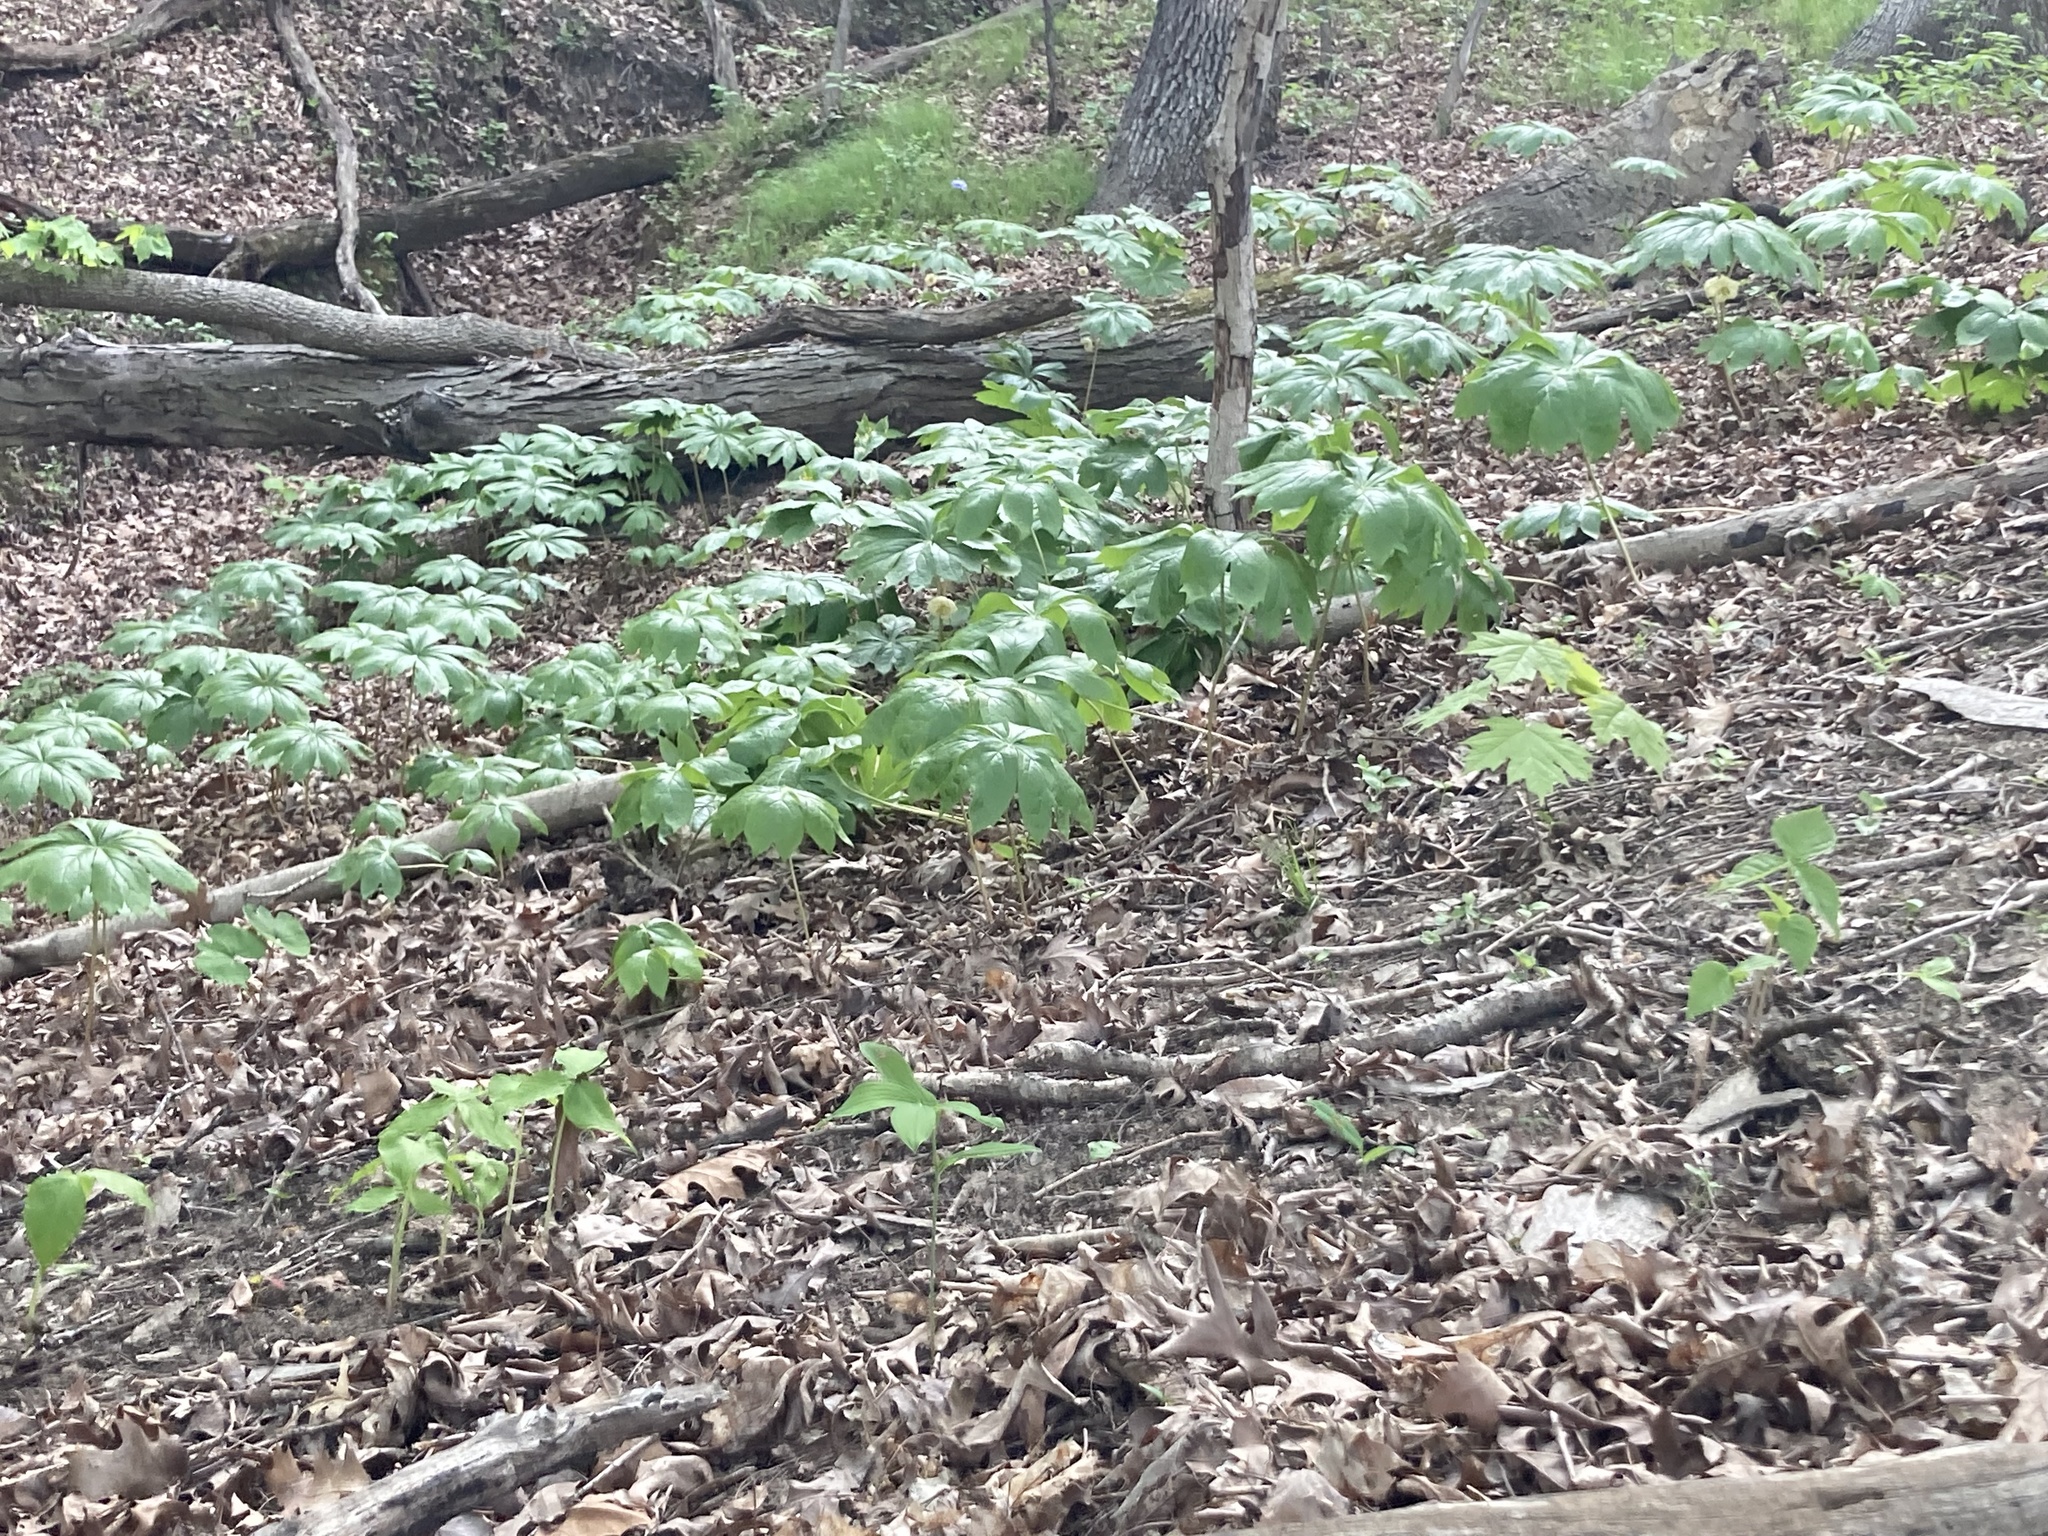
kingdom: Plantae
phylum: Tracheophyta
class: Magnoliopsida
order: Ranunculales
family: Berberidaceae
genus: Podophyllum
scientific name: Podophyllum peltatum
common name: Wild mandrake
